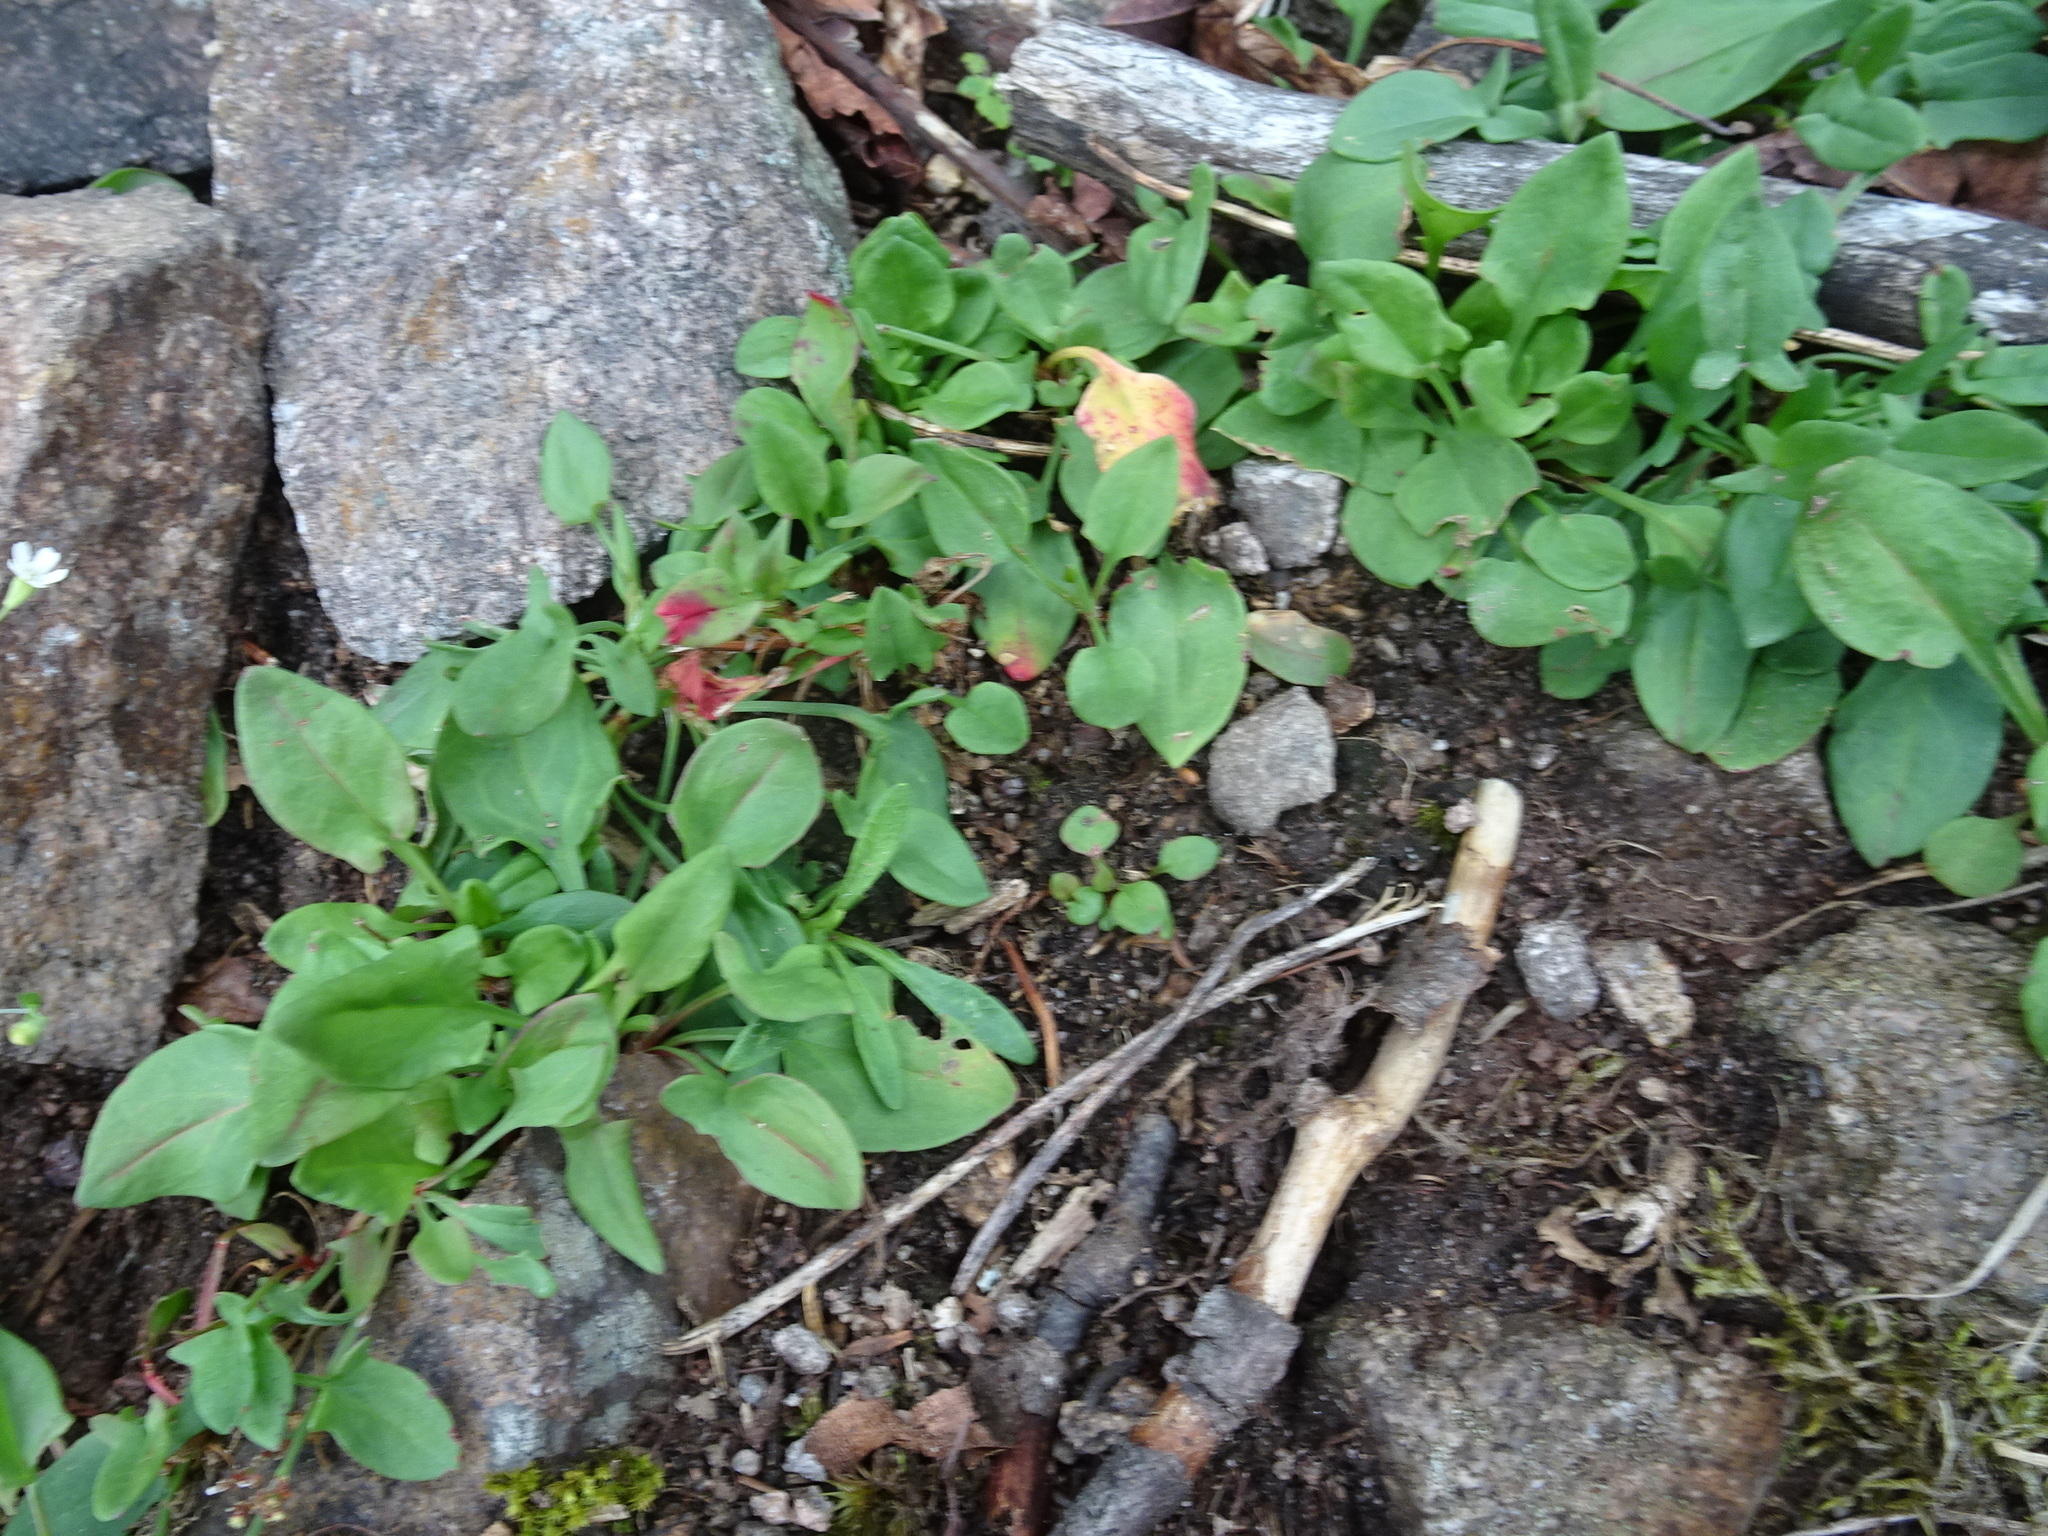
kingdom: Plantae
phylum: Tracheophyta
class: Magnoliopsida
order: Caryophyllales
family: Polygonaceae
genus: Rumex
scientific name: Rumex acetosella
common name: Common sheep sorrel
